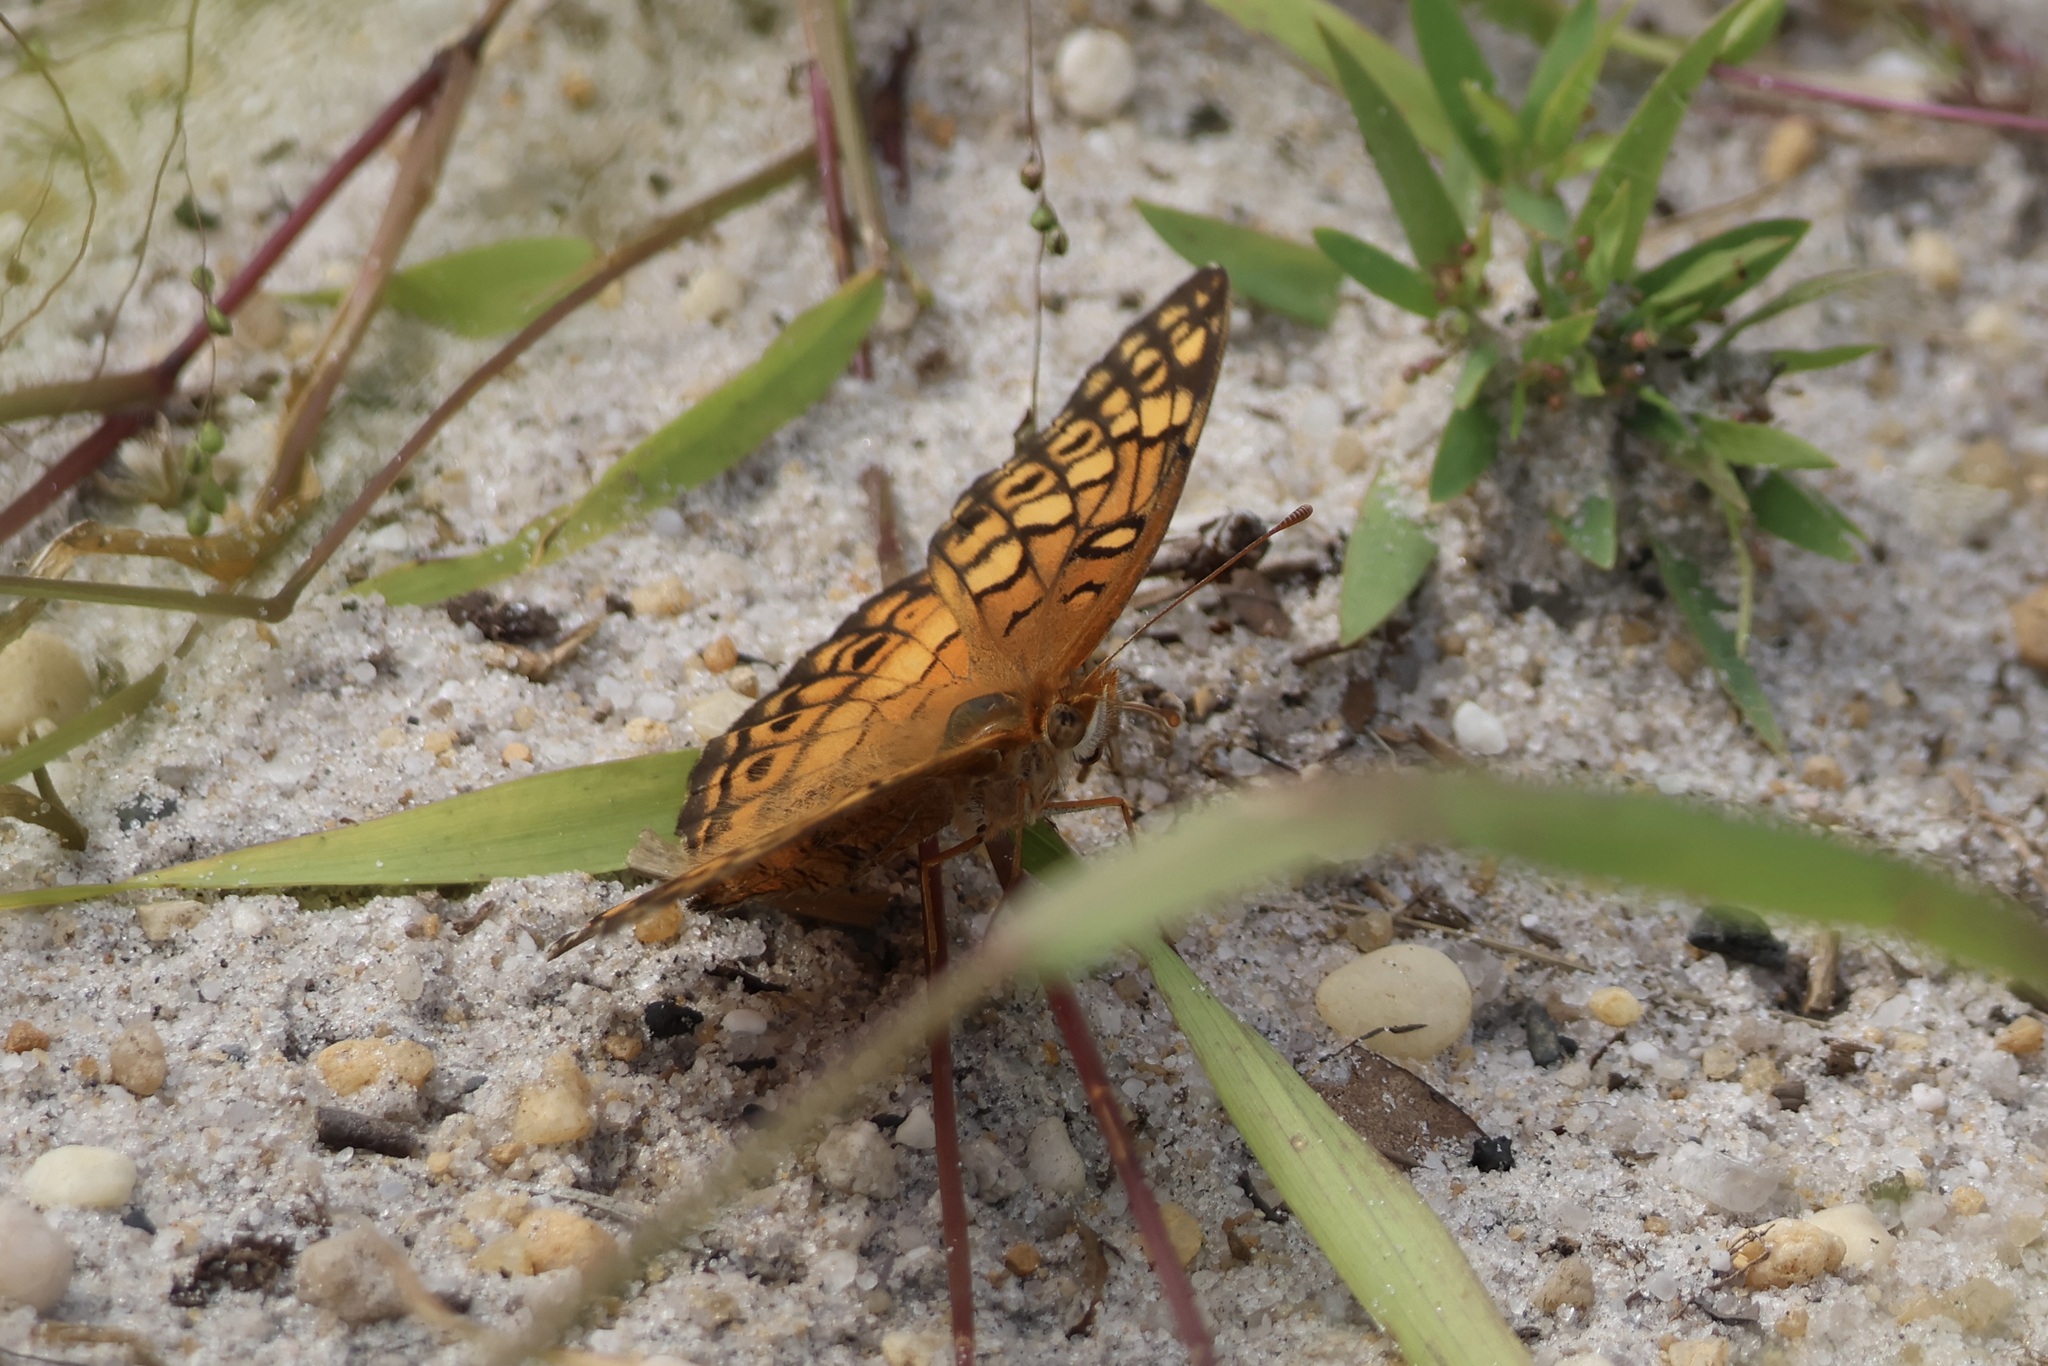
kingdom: Animalia
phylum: Arthropoda
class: Insecta
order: Lepidoptera
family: Nymphalidae
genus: Euptoieta
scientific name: Euptoieta claudia
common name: Variegated fritillary
